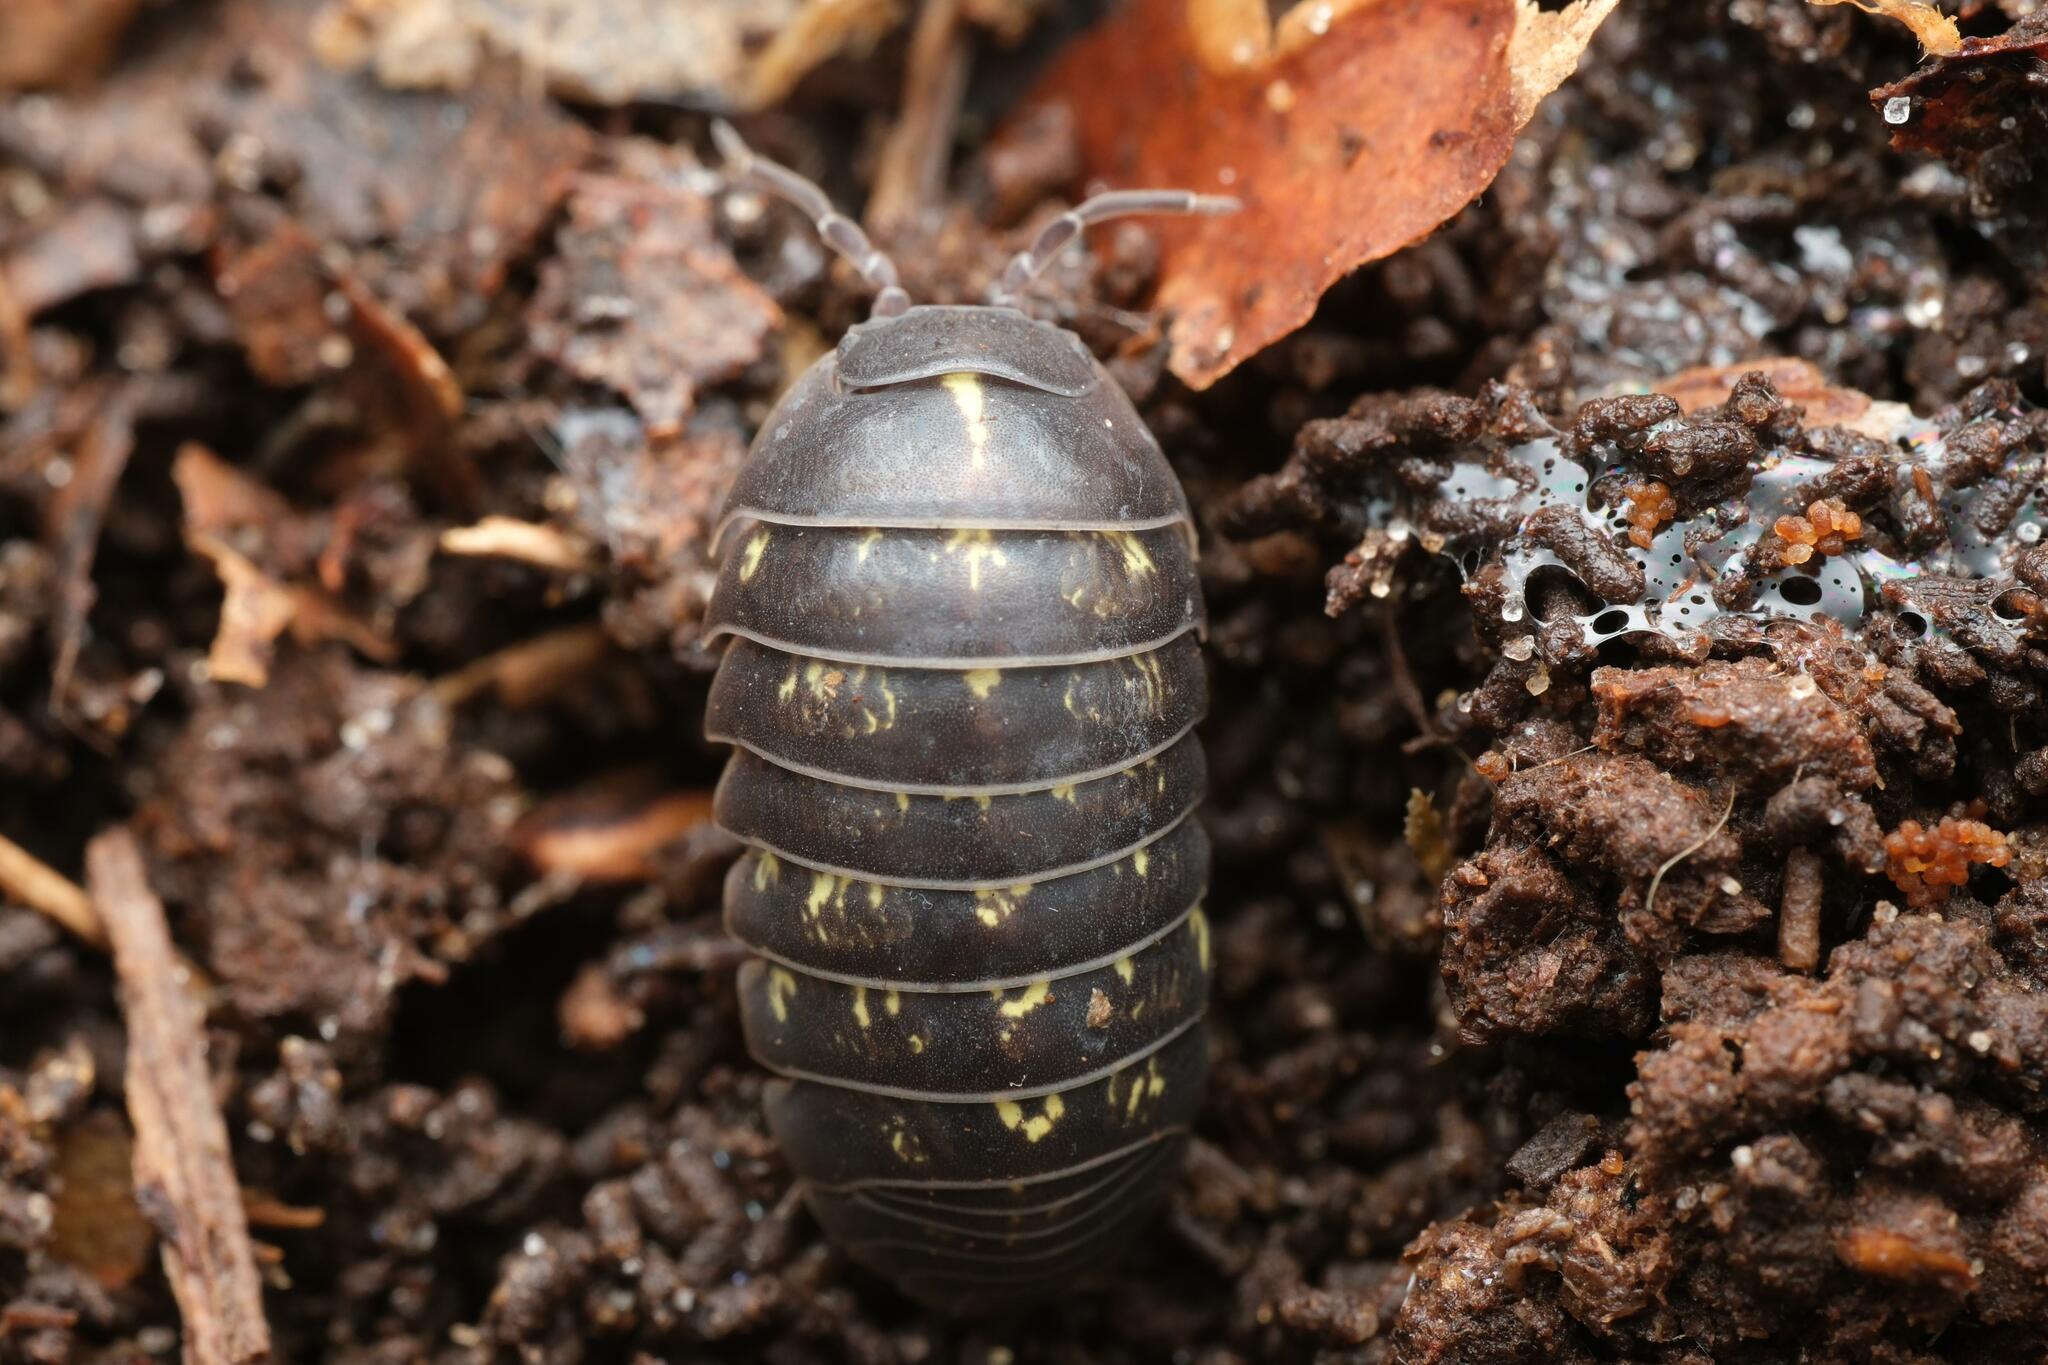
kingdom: Animalia
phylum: Arthropoda
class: Malacostraca
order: Isopoda
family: Armadillidiidae
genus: Armadillidium
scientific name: Armadillidium vulgare
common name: Common pill woodlouse
